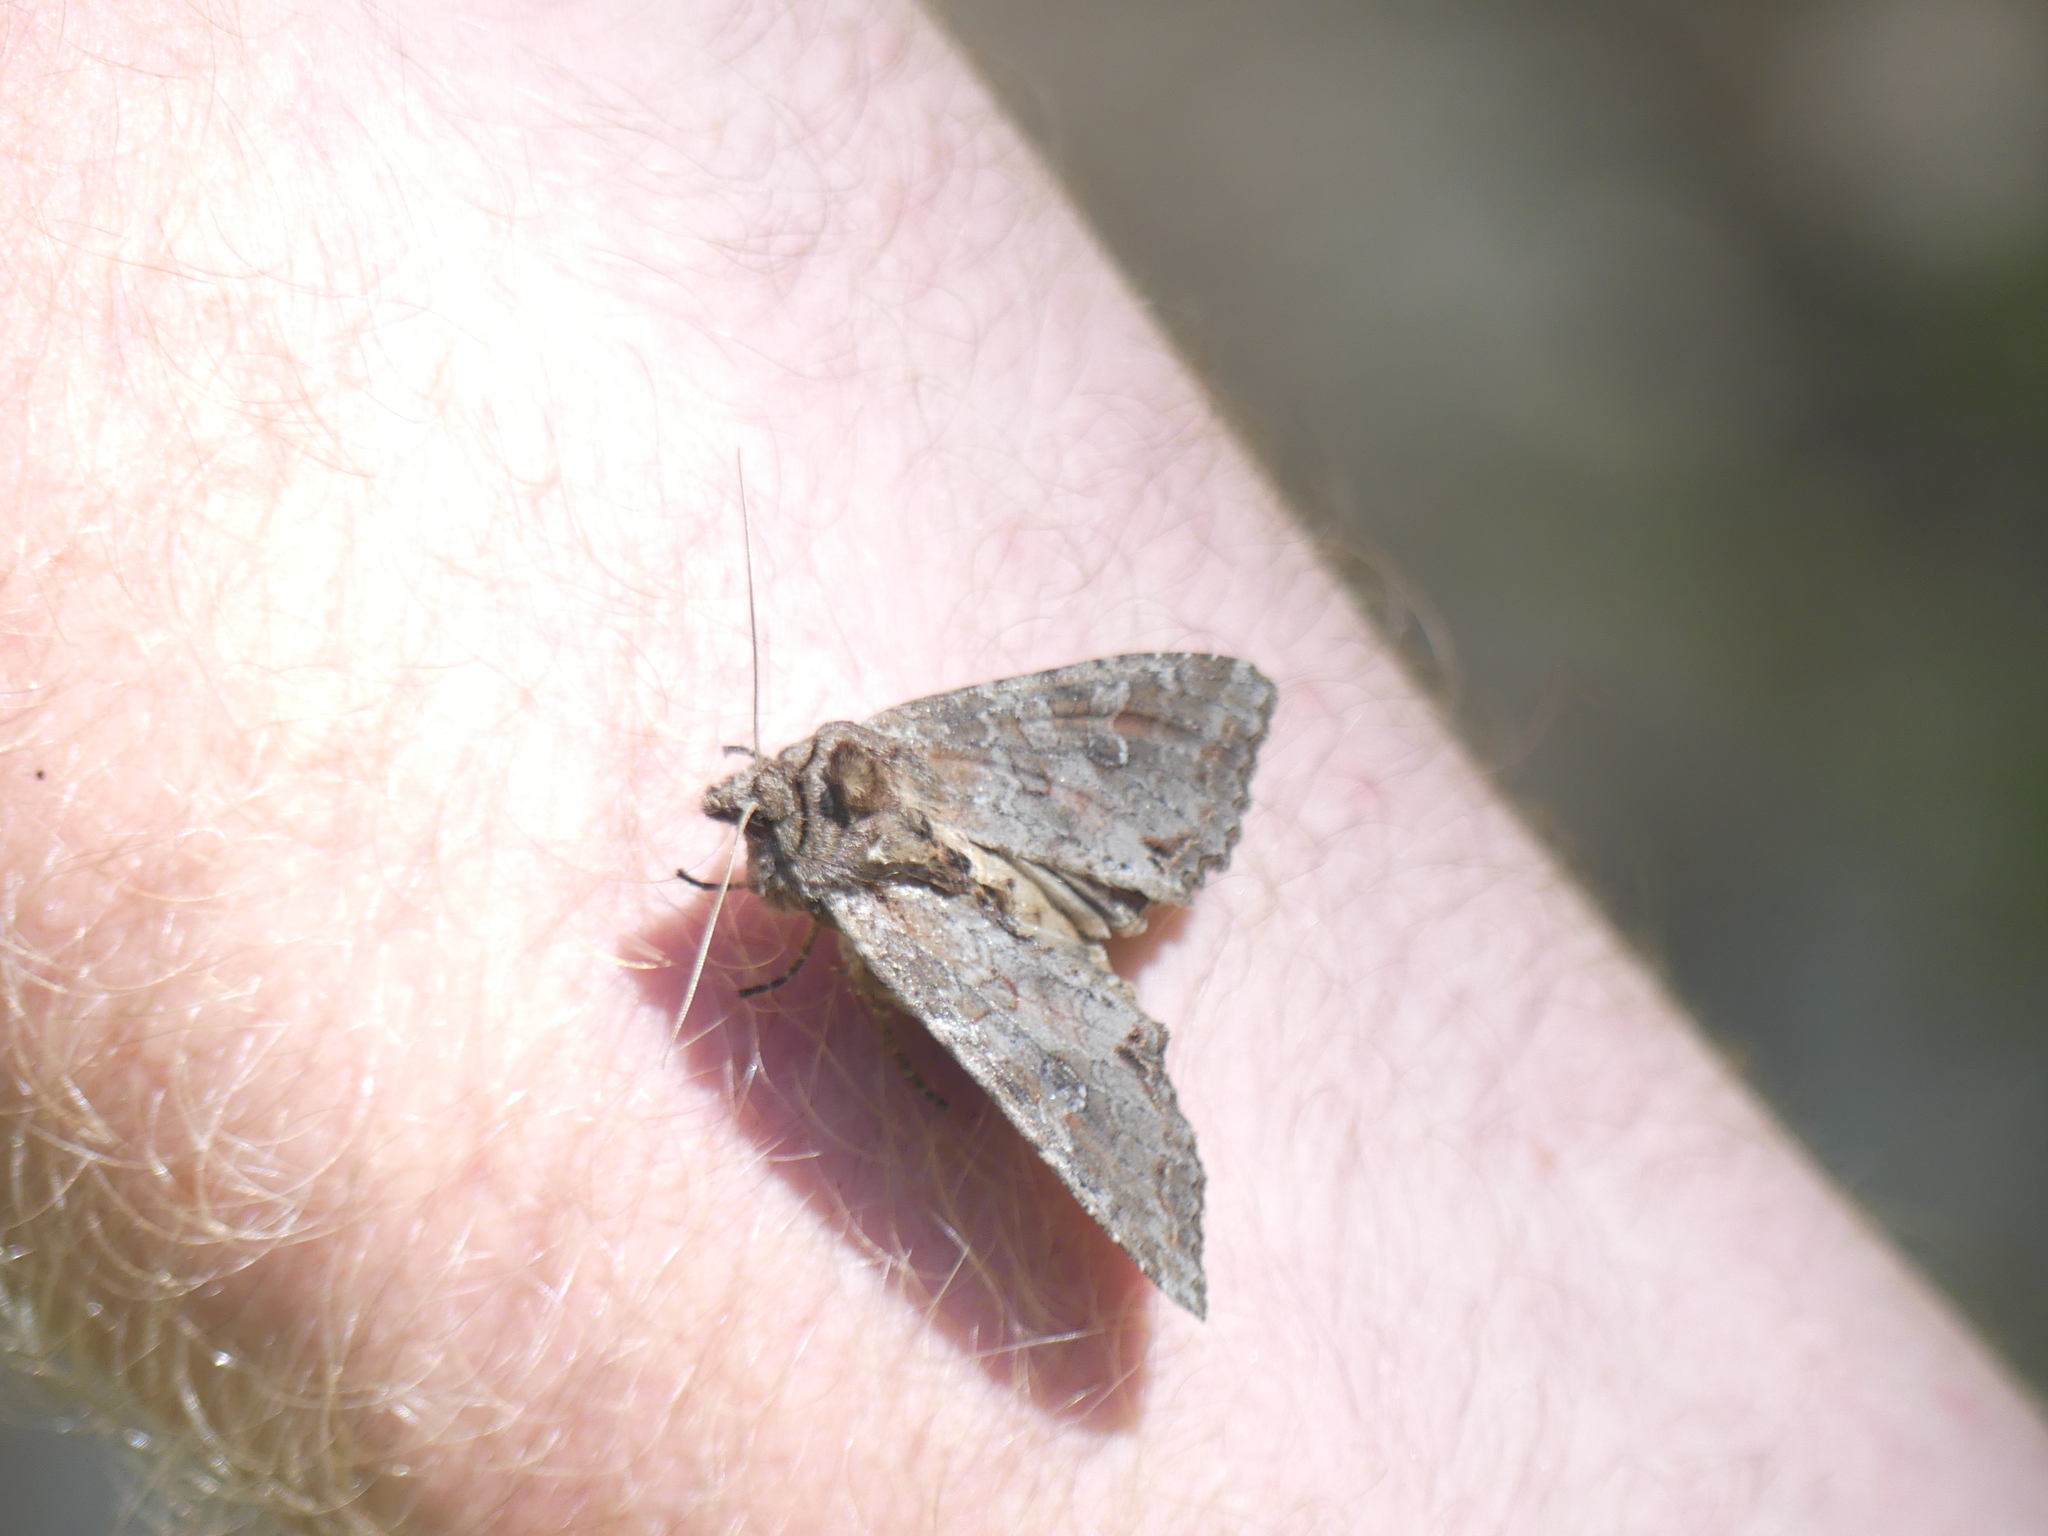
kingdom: Animalia
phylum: Arthropoda
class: Insecta
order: Lepidoptera
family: Noctuidae
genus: Polia
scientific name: Polia bombycina
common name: Pale shining brown
